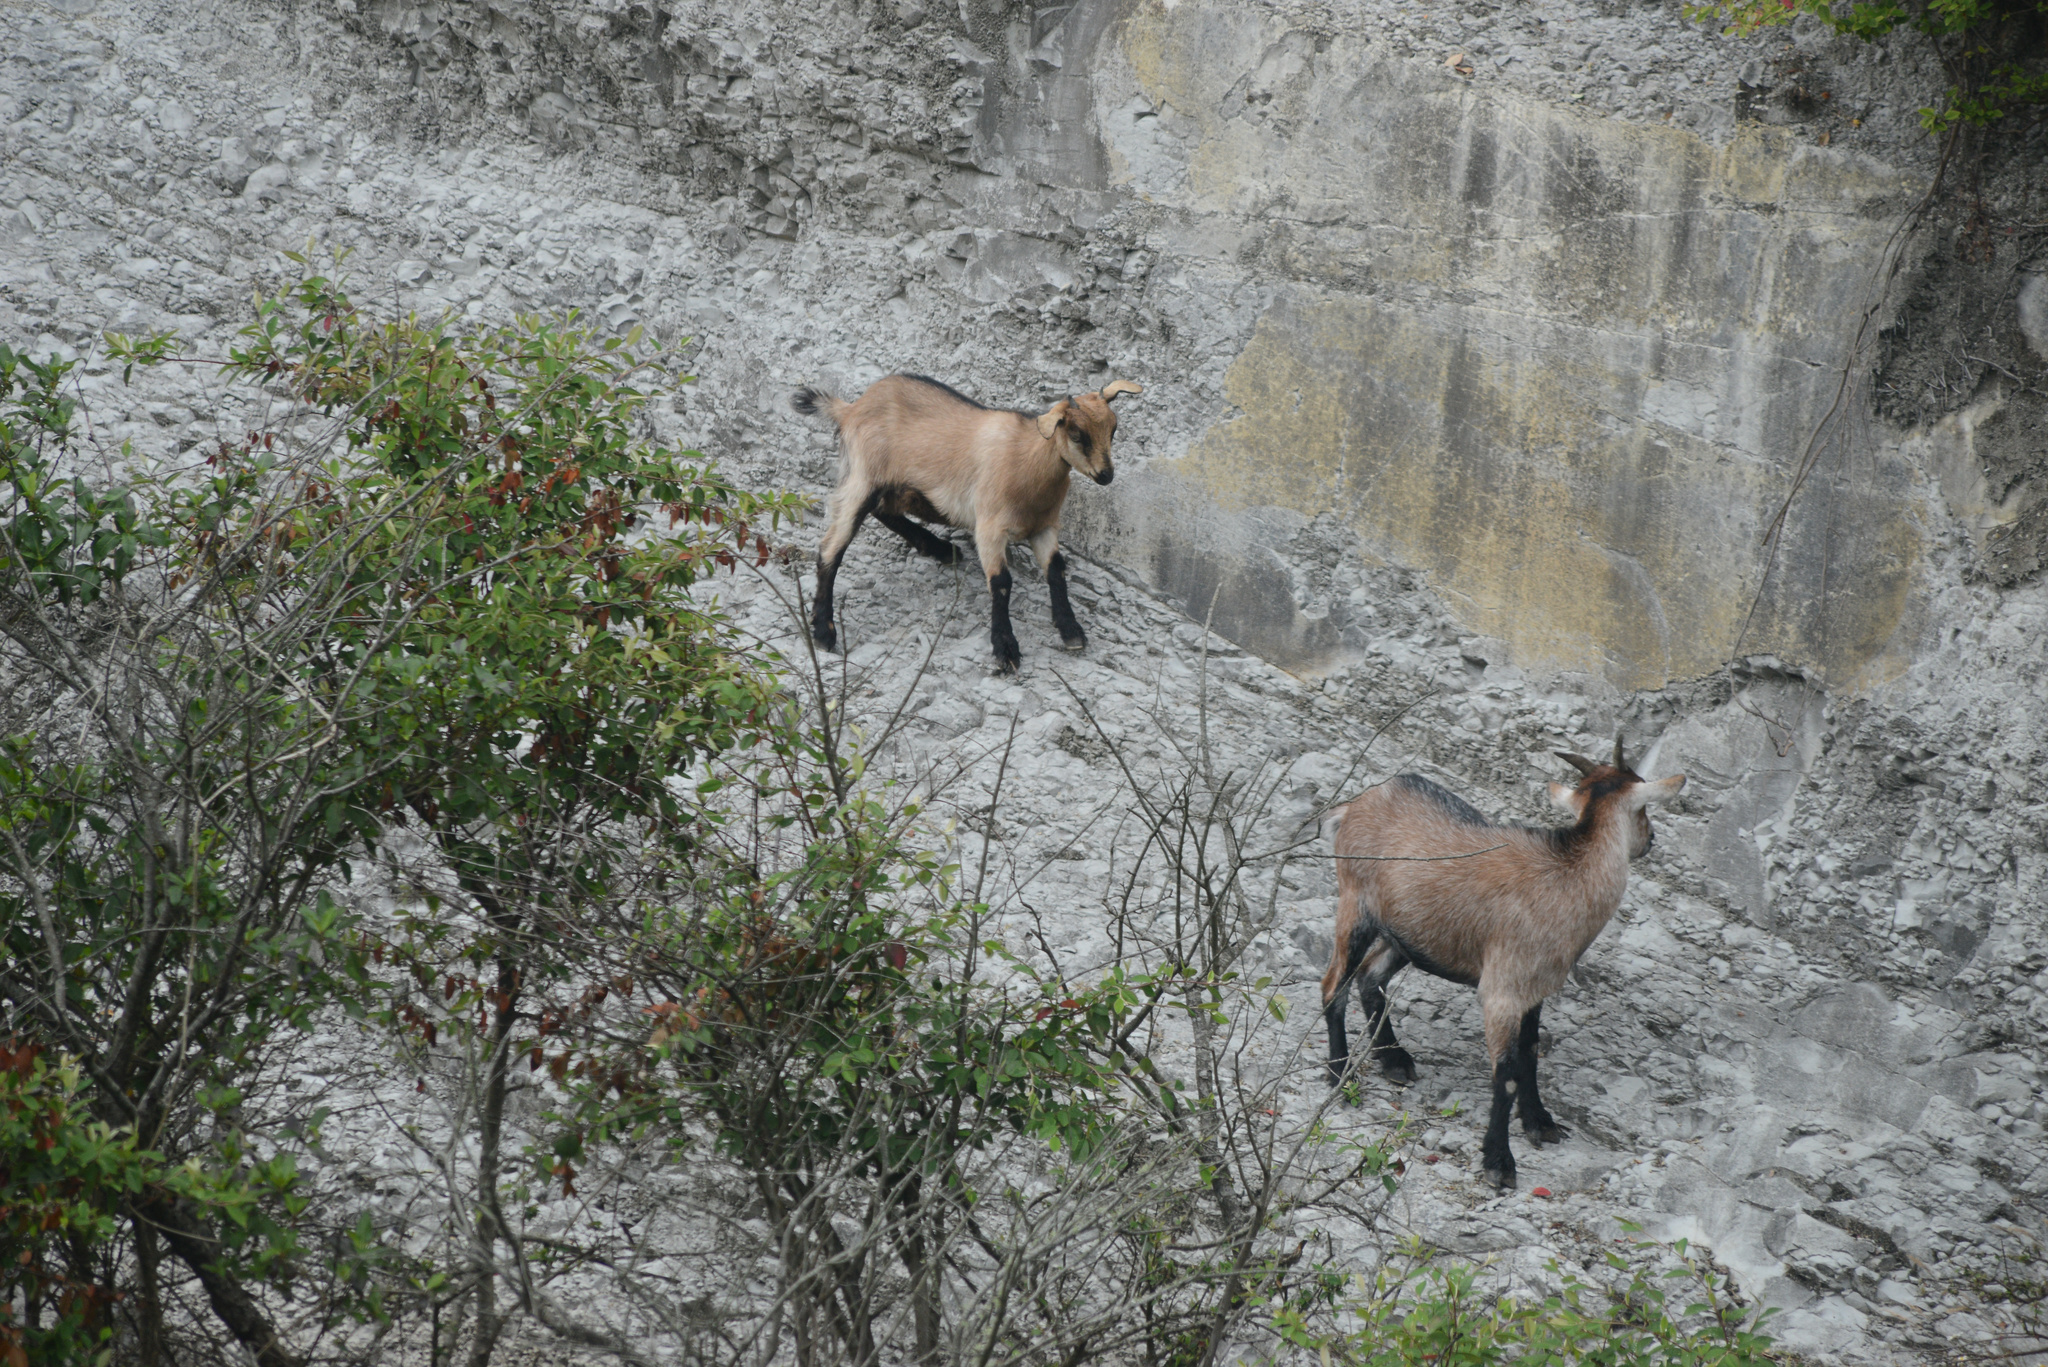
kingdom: Animalia
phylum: Chordata
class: Mammalia
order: Artiodactyla
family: Bovidae
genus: Capra
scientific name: Capra hircus
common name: Domestic goat
